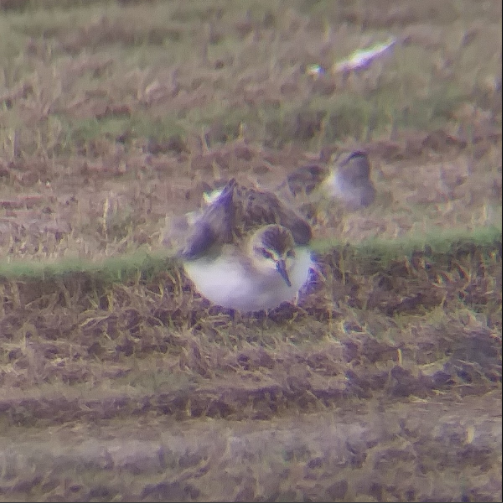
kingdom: Animalia
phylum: Chordata
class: Aves
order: Charadriiformes
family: Scolopacidae
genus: Calidris
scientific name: Calidris pusilla
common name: Semipalmated sandpiper
